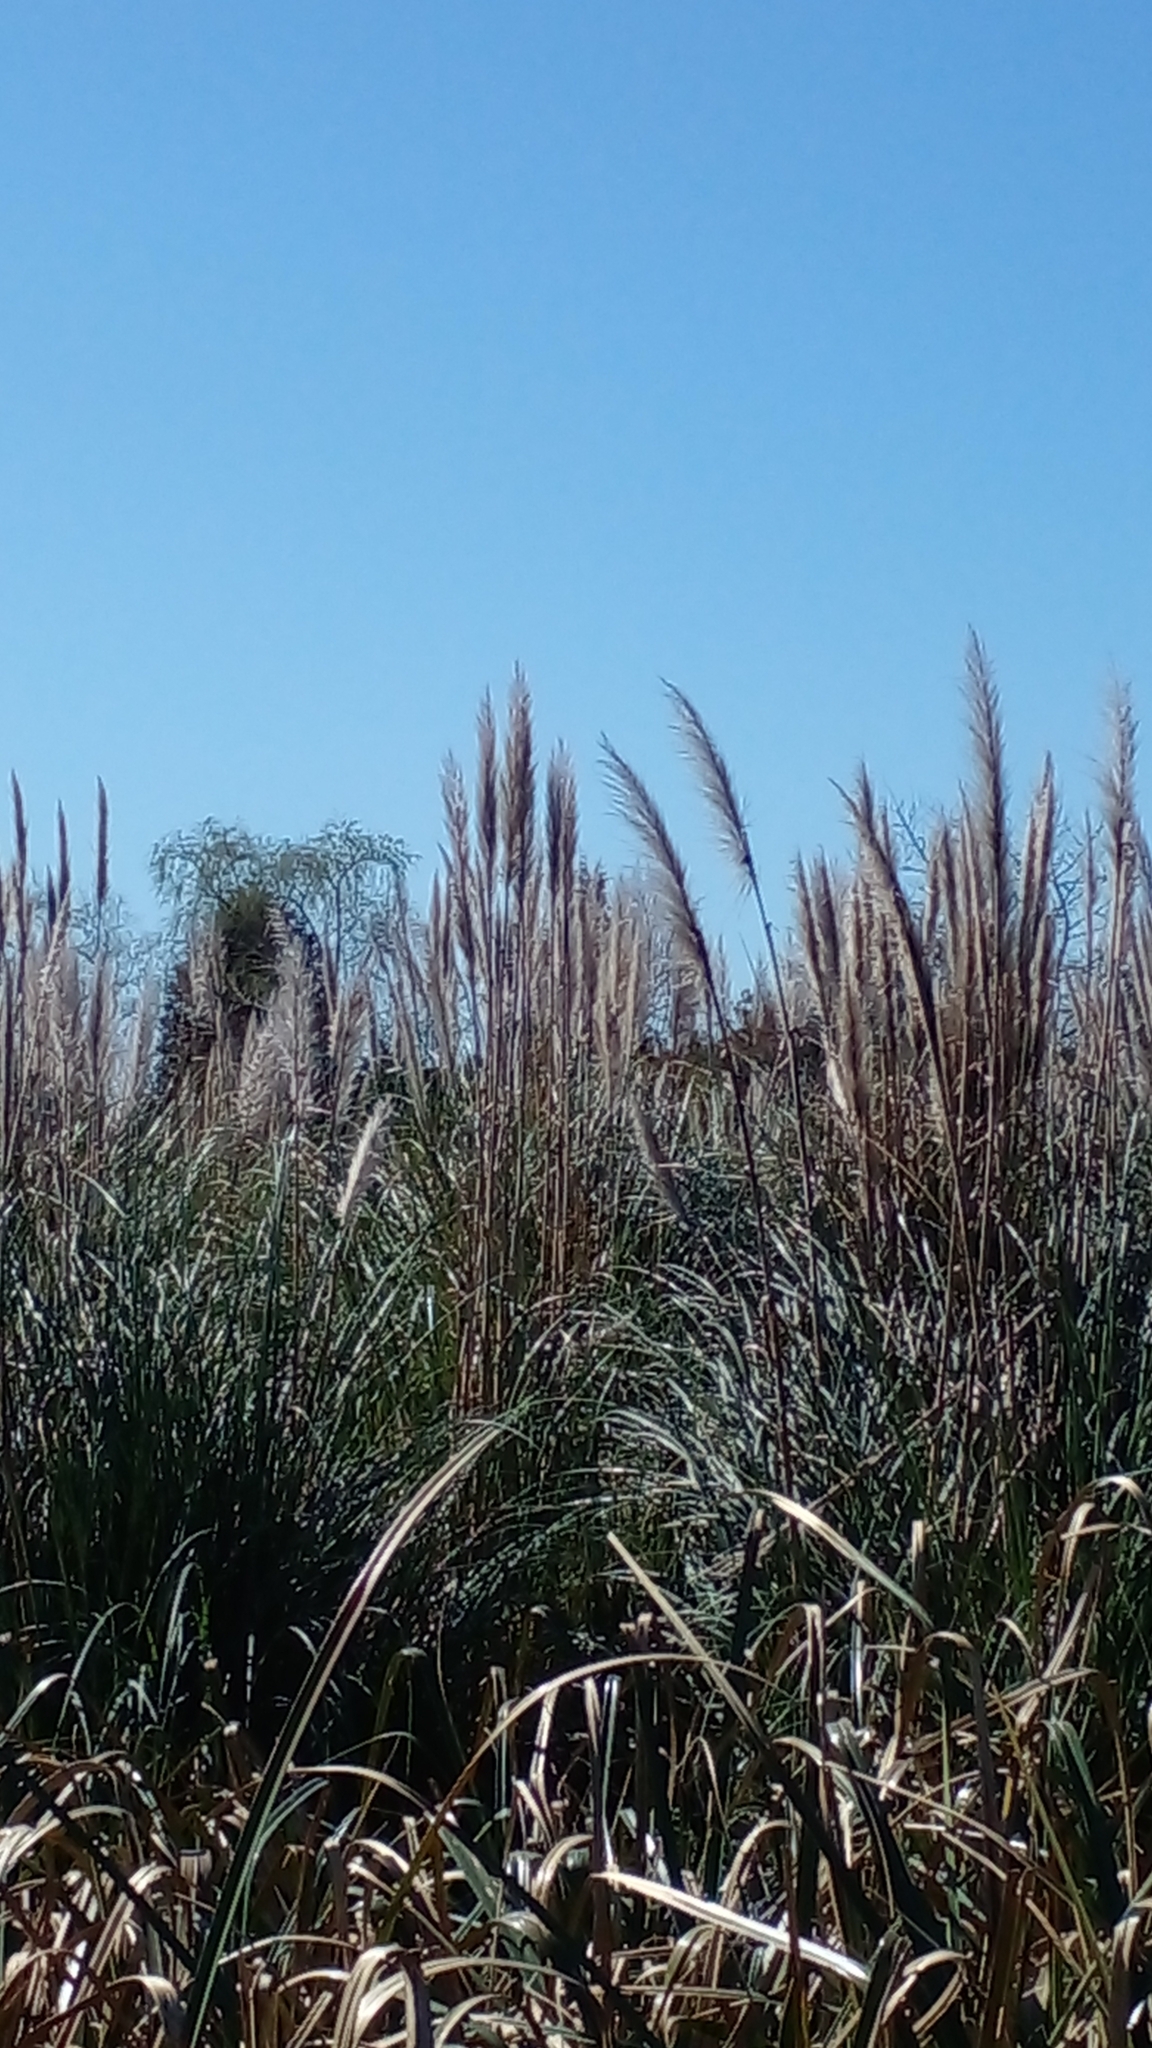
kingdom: Plantae
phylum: Tracheophyta
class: Liliopsida
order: Poales
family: Poaceae
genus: Cortaderia
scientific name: Cortaderia selloana
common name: Uruguayan pampas grass
